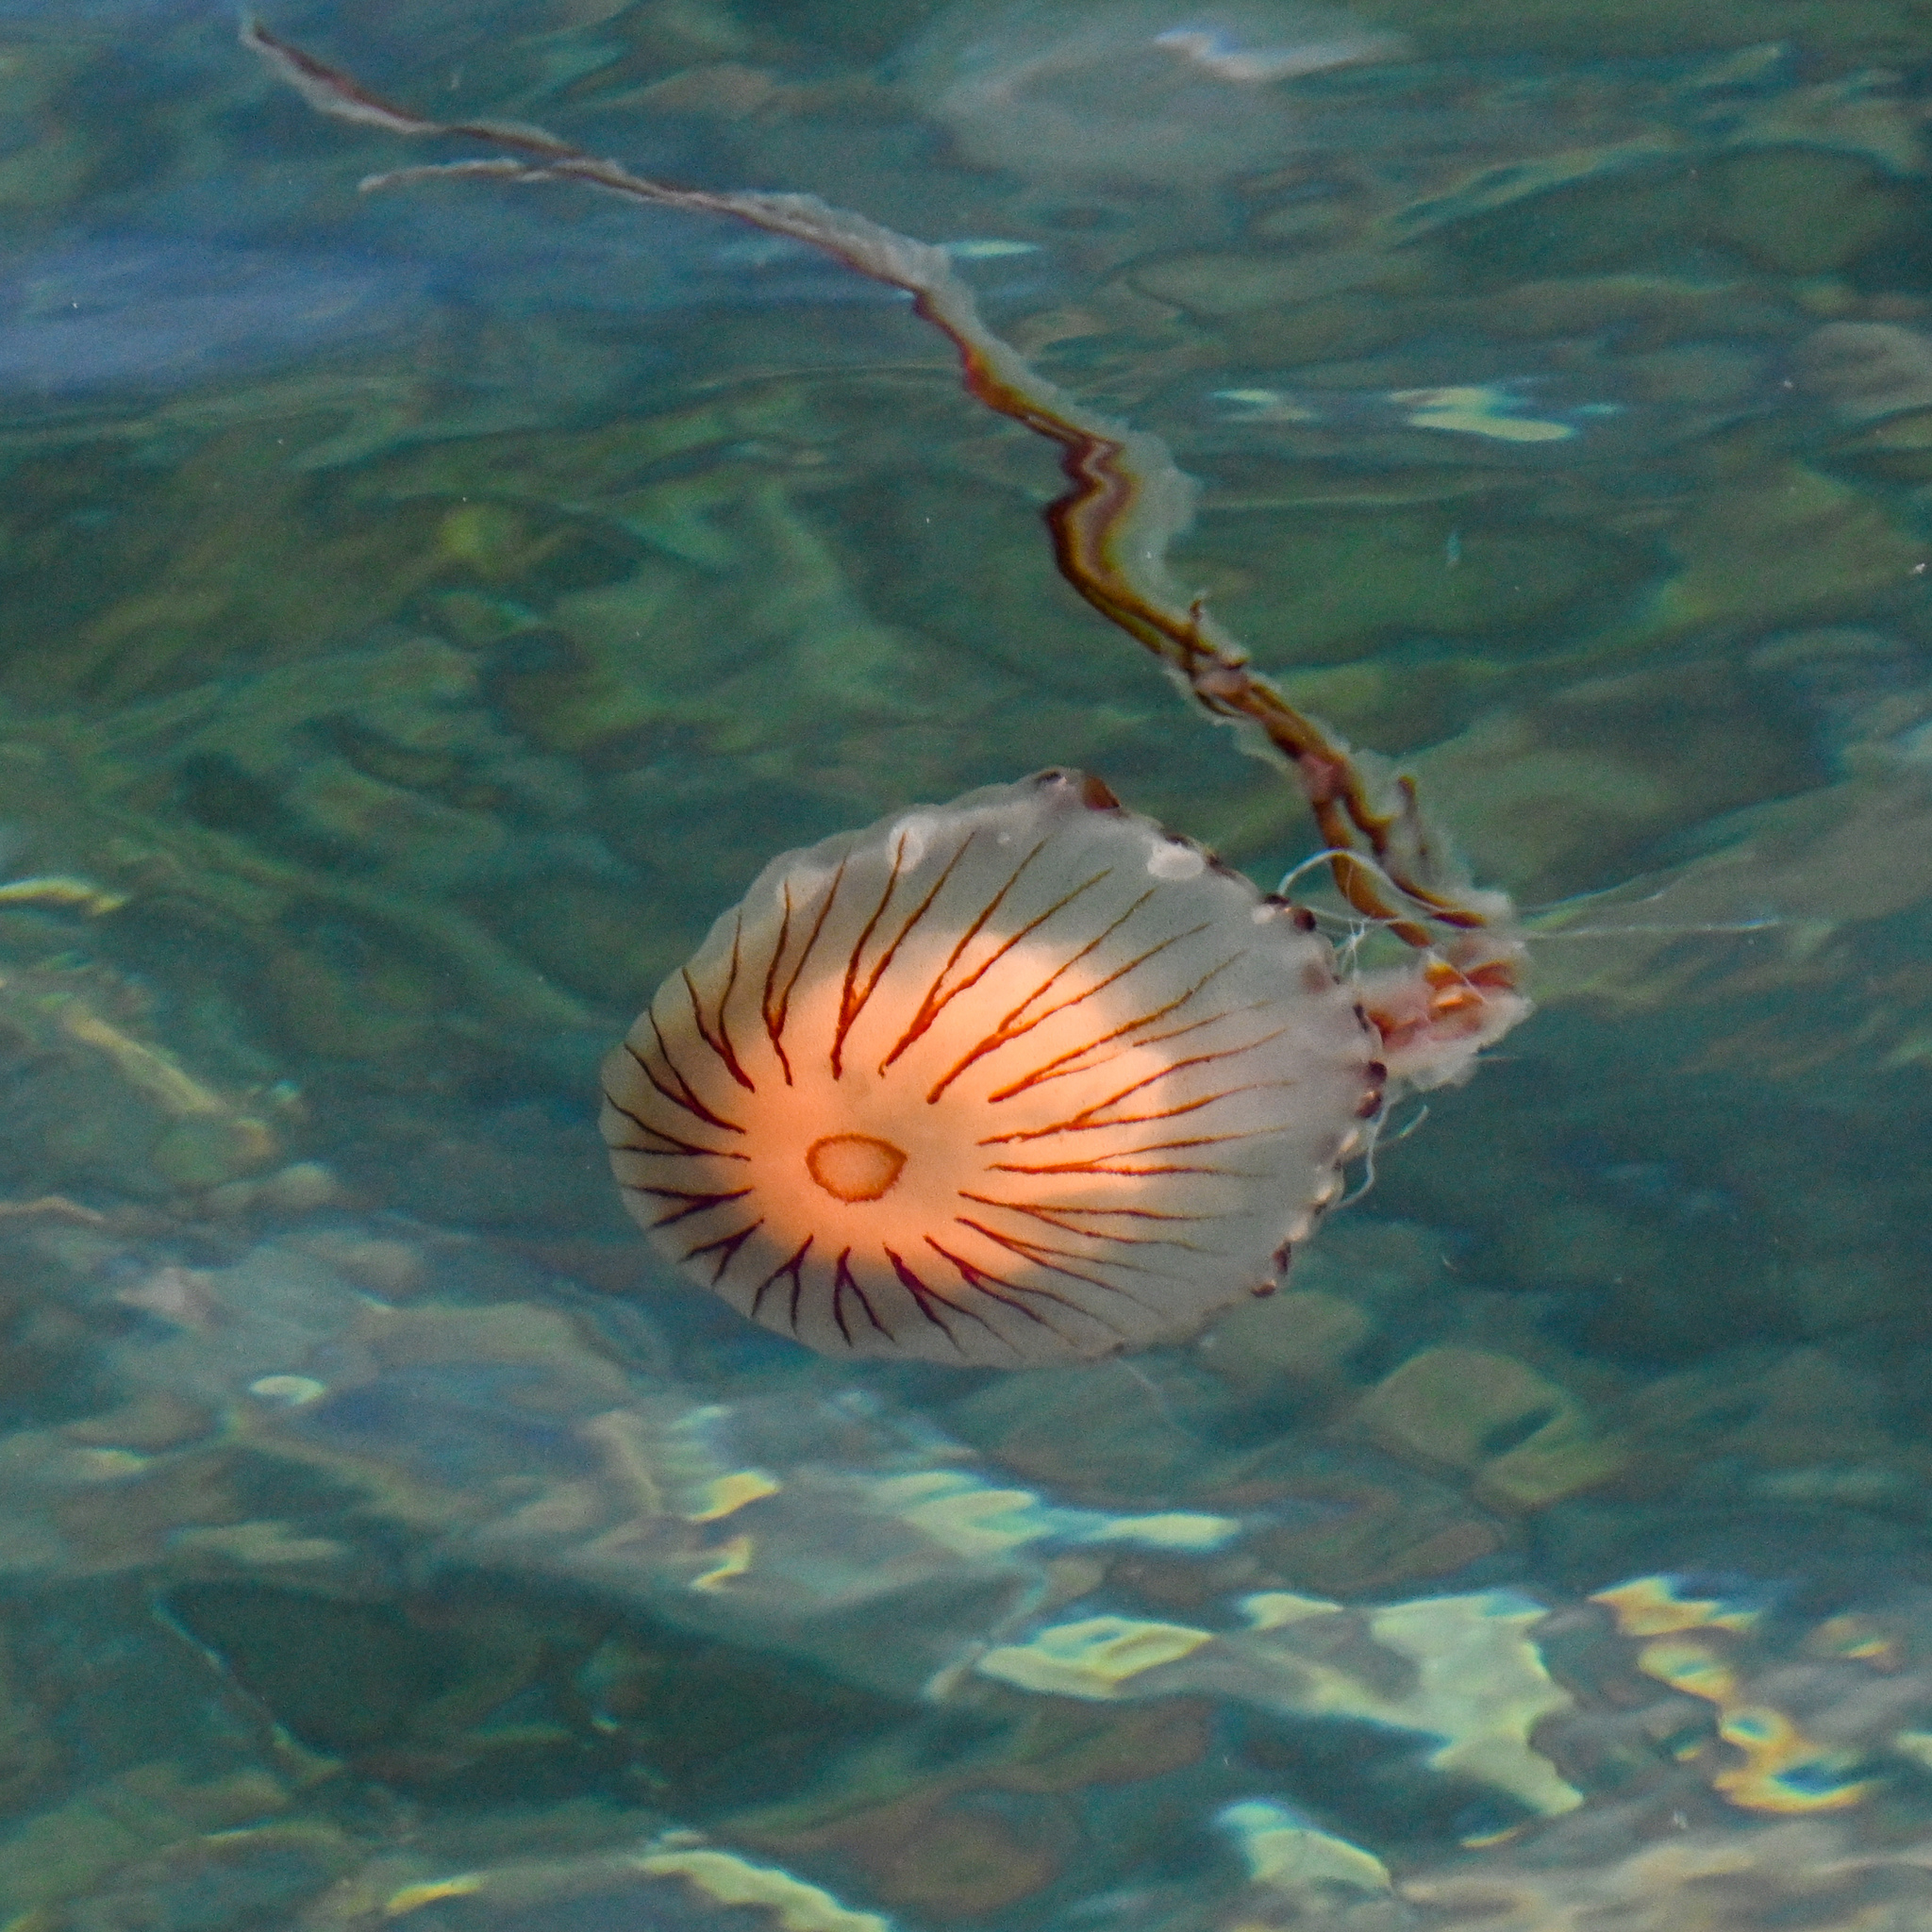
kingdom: Animalia
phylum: Cnidaria
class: Scyphozoa
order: Semaeostomeae
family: Pelagiidae
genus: Chrysaora
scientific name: Chrysaora hysoscella
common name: Compass jellyfish
